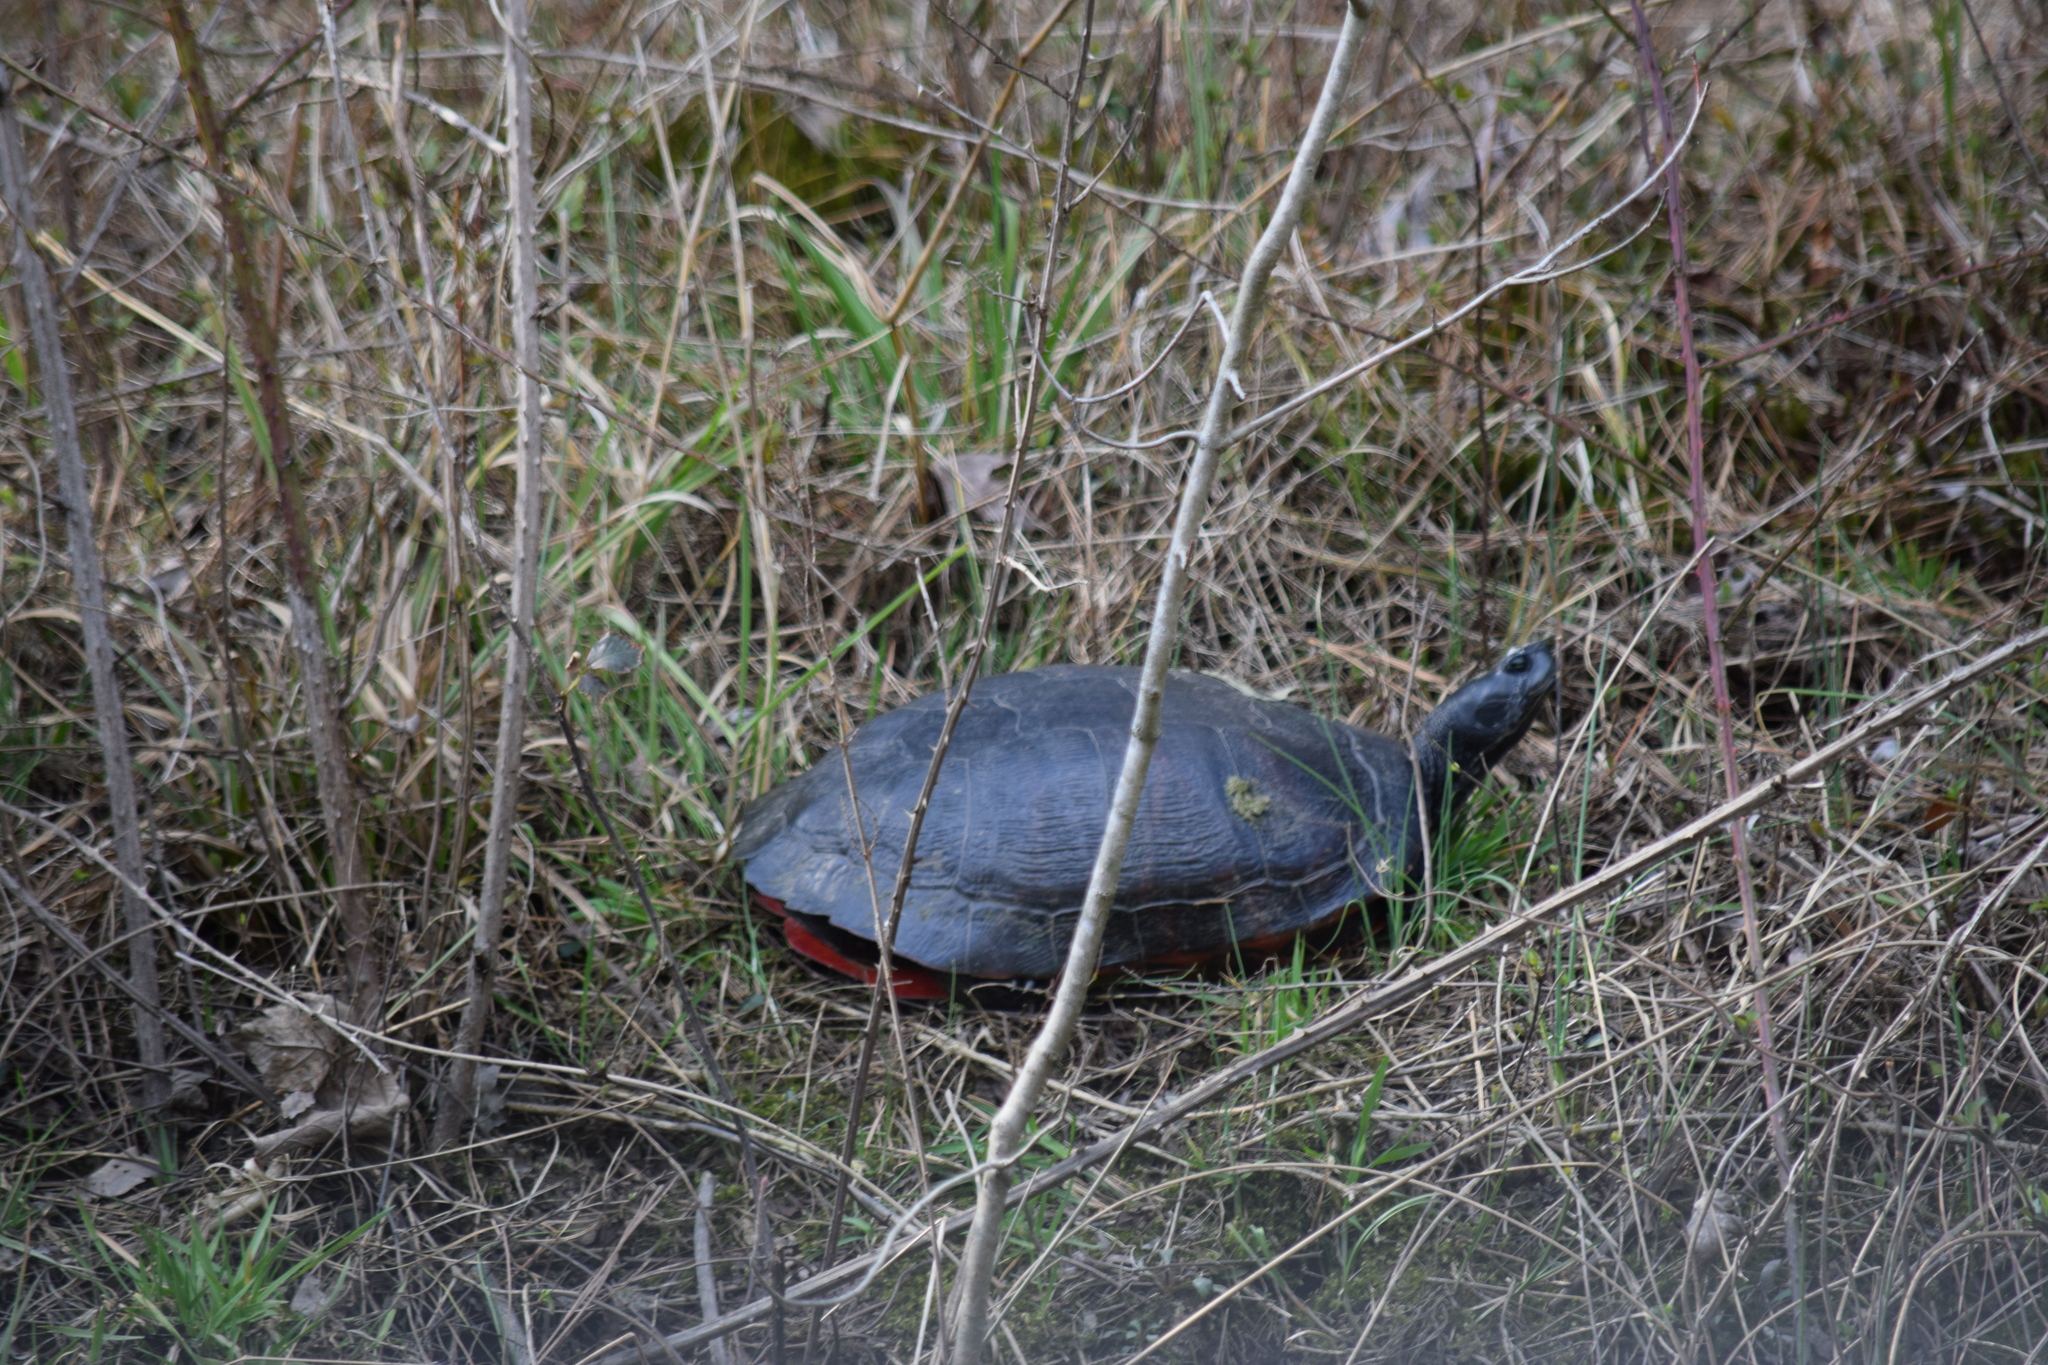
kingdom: Animalia
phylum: Chordata
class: Testudines
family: Emydidae
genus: Pseudemys
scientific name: Pseudemys rubriventris
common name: American red-bellied turtle
